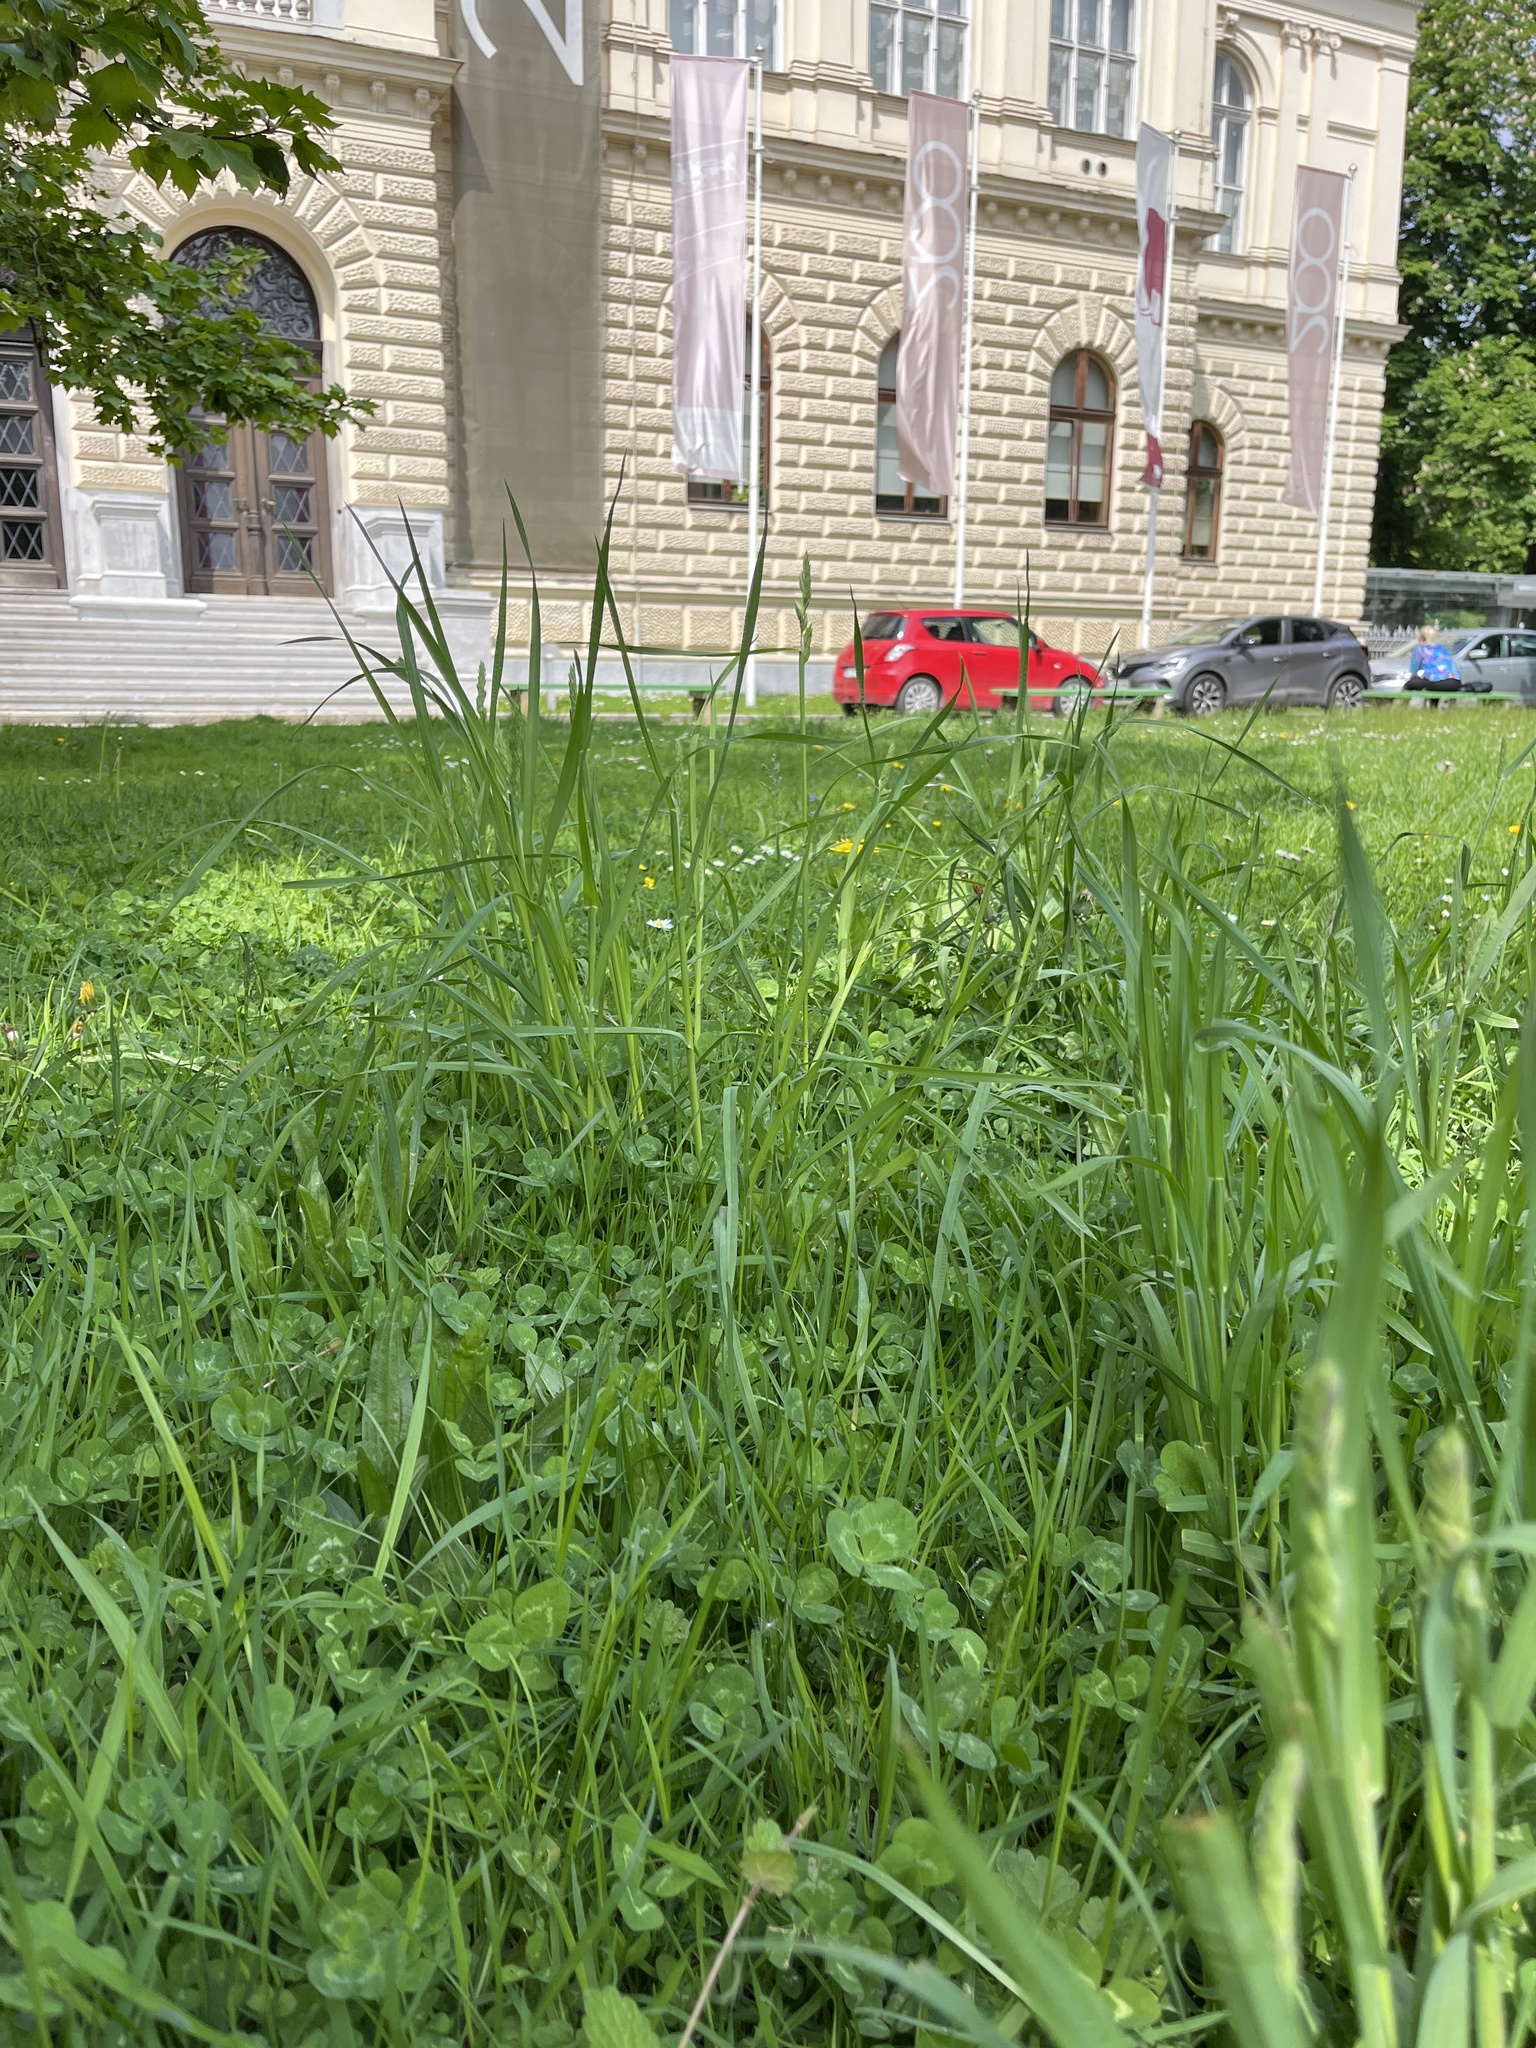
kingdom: Plantae
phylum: Tracheophyta
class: Liliopsida
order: Poales
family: Poaceae
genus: Dactylis
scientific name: Dactylis glomerata
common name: Orchardgrass
